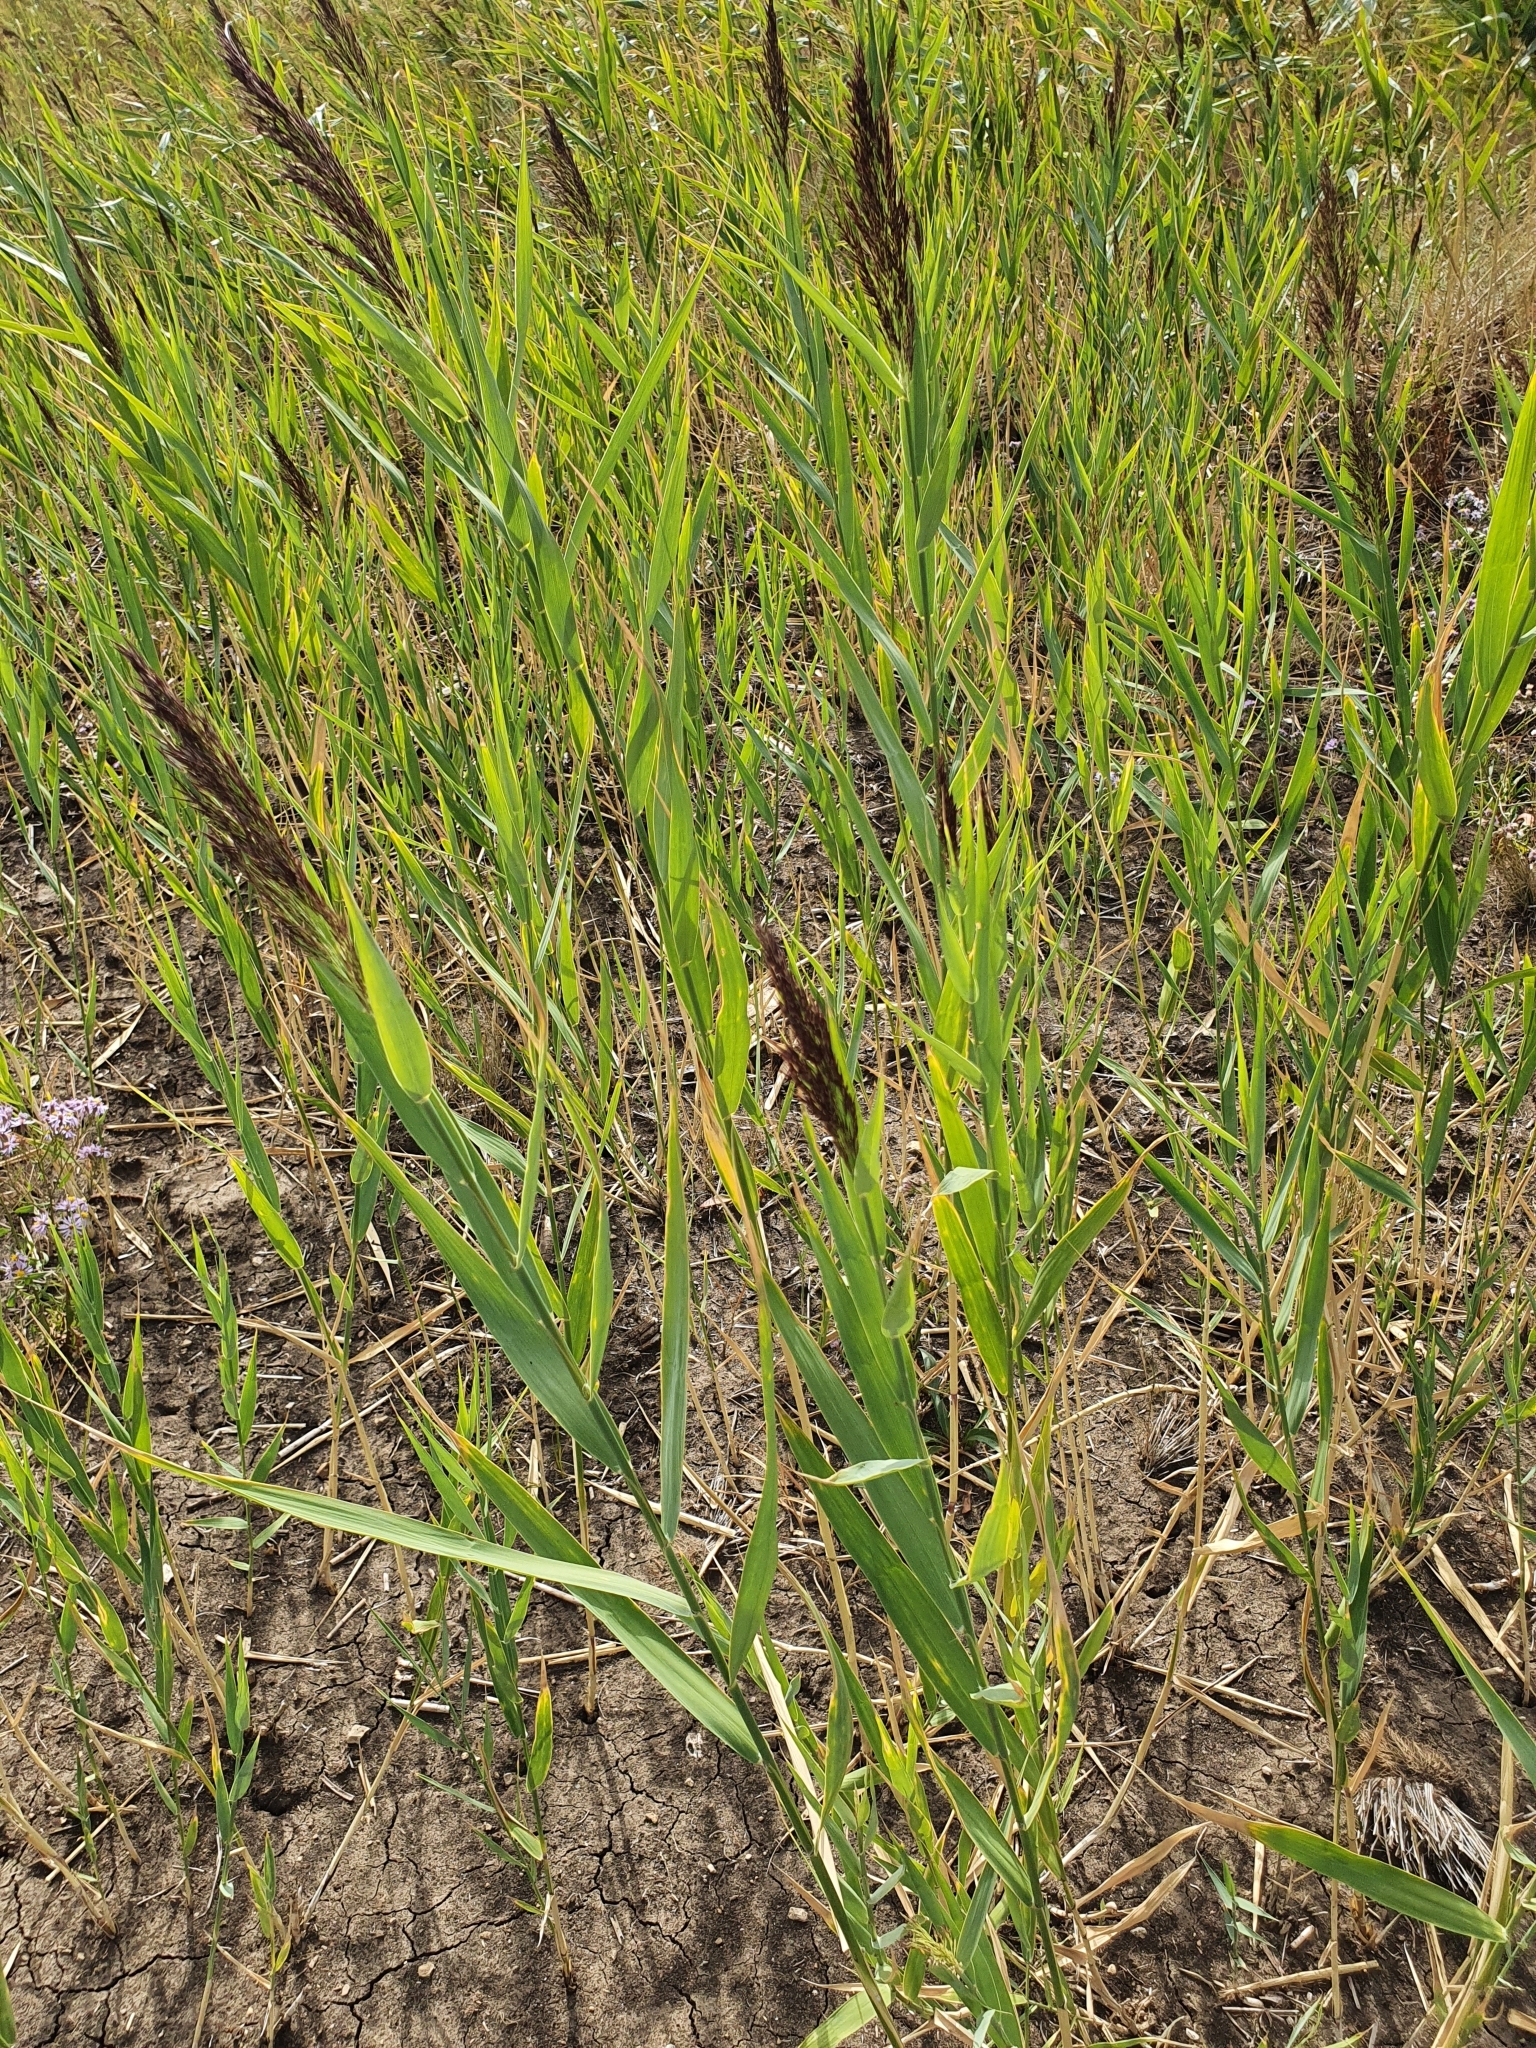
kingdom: Plantae
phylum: Tracheophyta
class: Liliopsida
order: Poales
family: Poaceae
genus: Phragmites
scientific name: Phragmites australis
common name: Common reed
